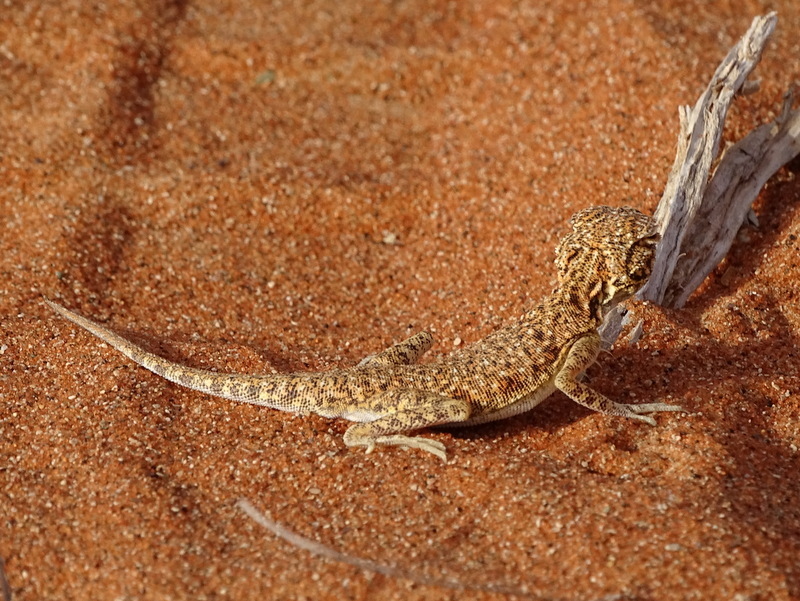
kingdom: Animalia
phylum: Chordata
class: Squamata
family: Agamidae
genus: Phrynocephalus
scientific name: Phrynocephalus arabicus
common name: Arabian toad-headed agama
